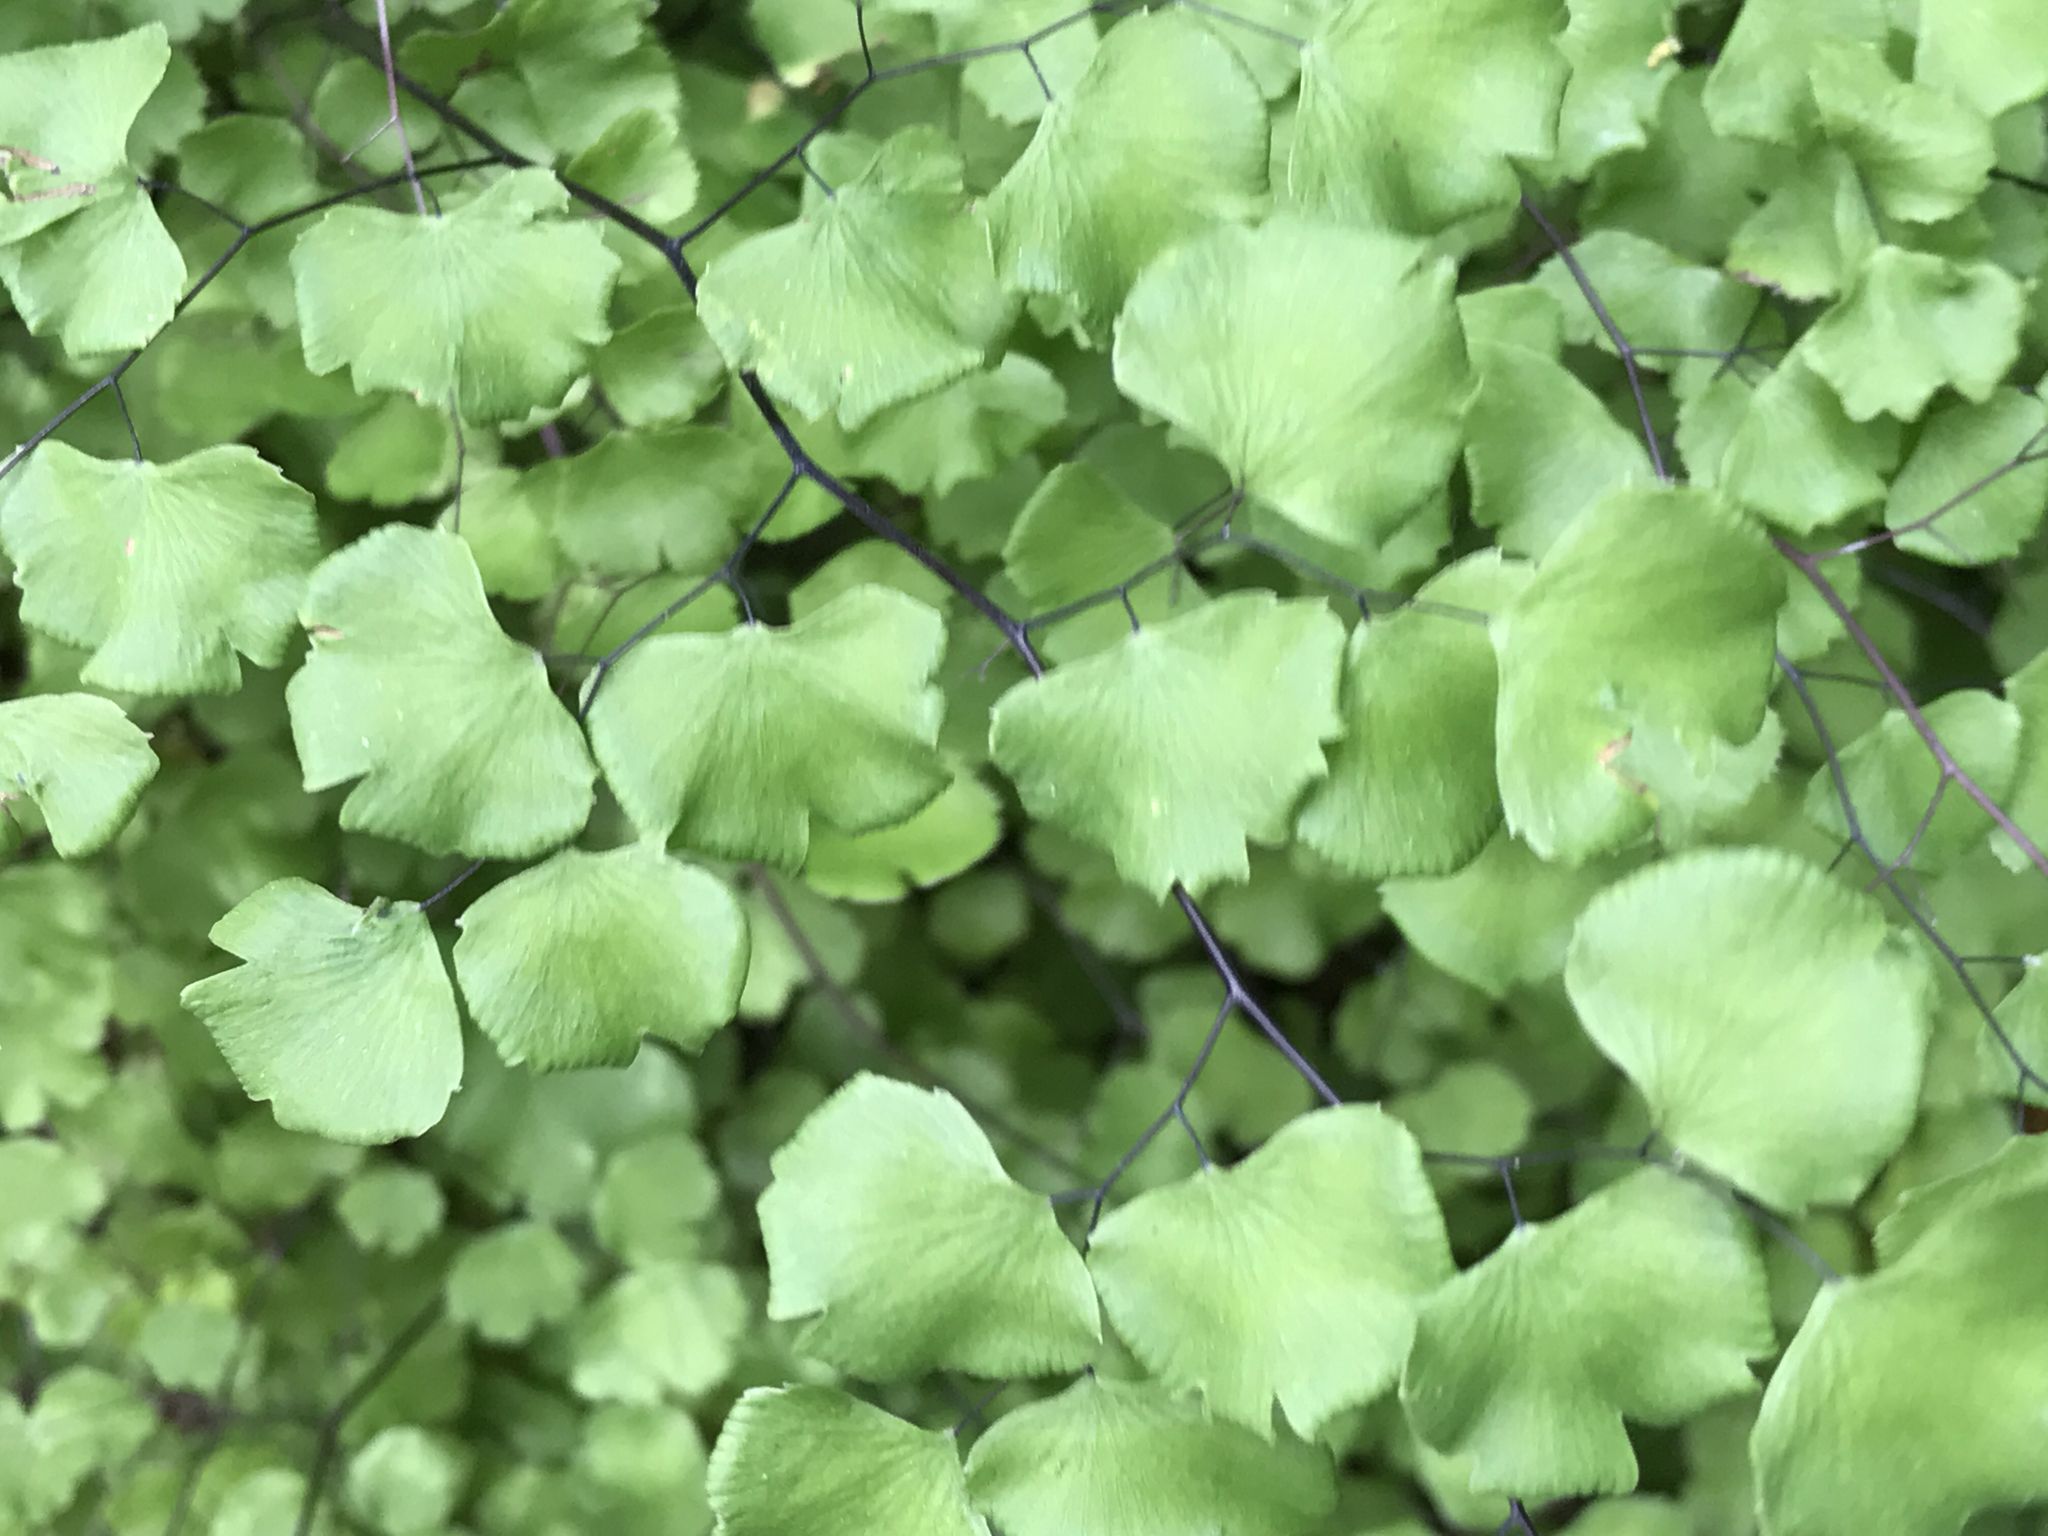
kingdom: Plantae
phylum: Tracheophyta
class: Polypodiopsida
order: Polypodiales
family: Pteridaceae
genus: Adiantum
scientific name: Adiantum jordanii
